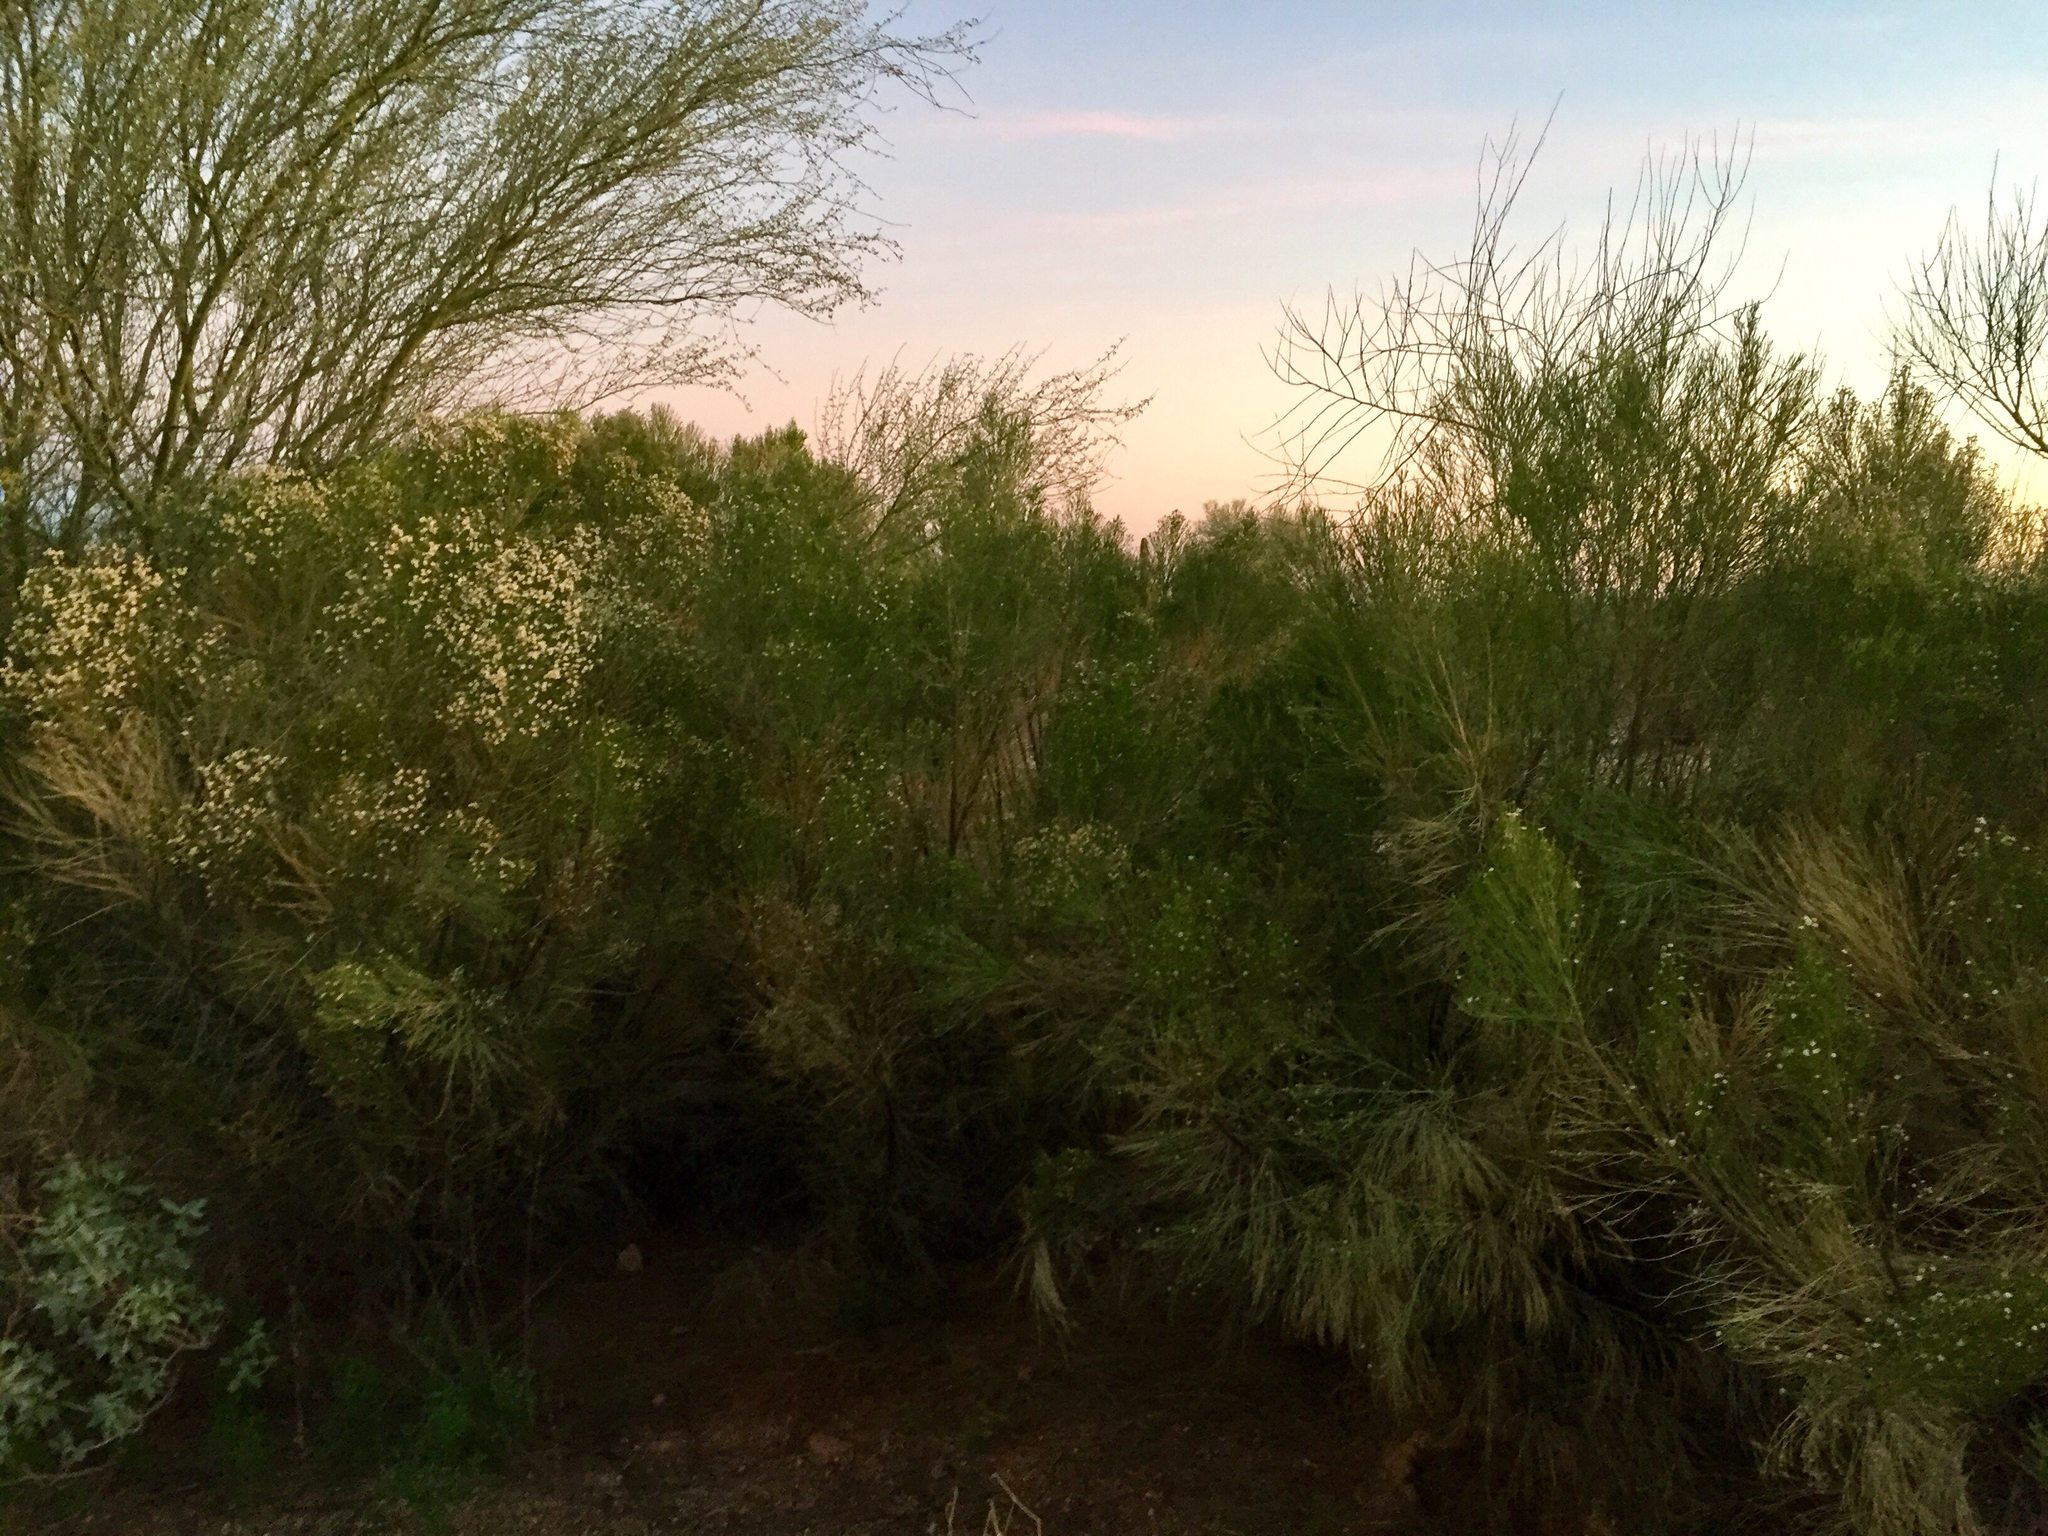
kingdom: Plantae
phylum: Tracheophyta
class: Magnoliopsida
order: Asterales
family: Asteraceae
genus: Baccharis
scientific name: Baccharis sarothroides
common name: Desert-broom
